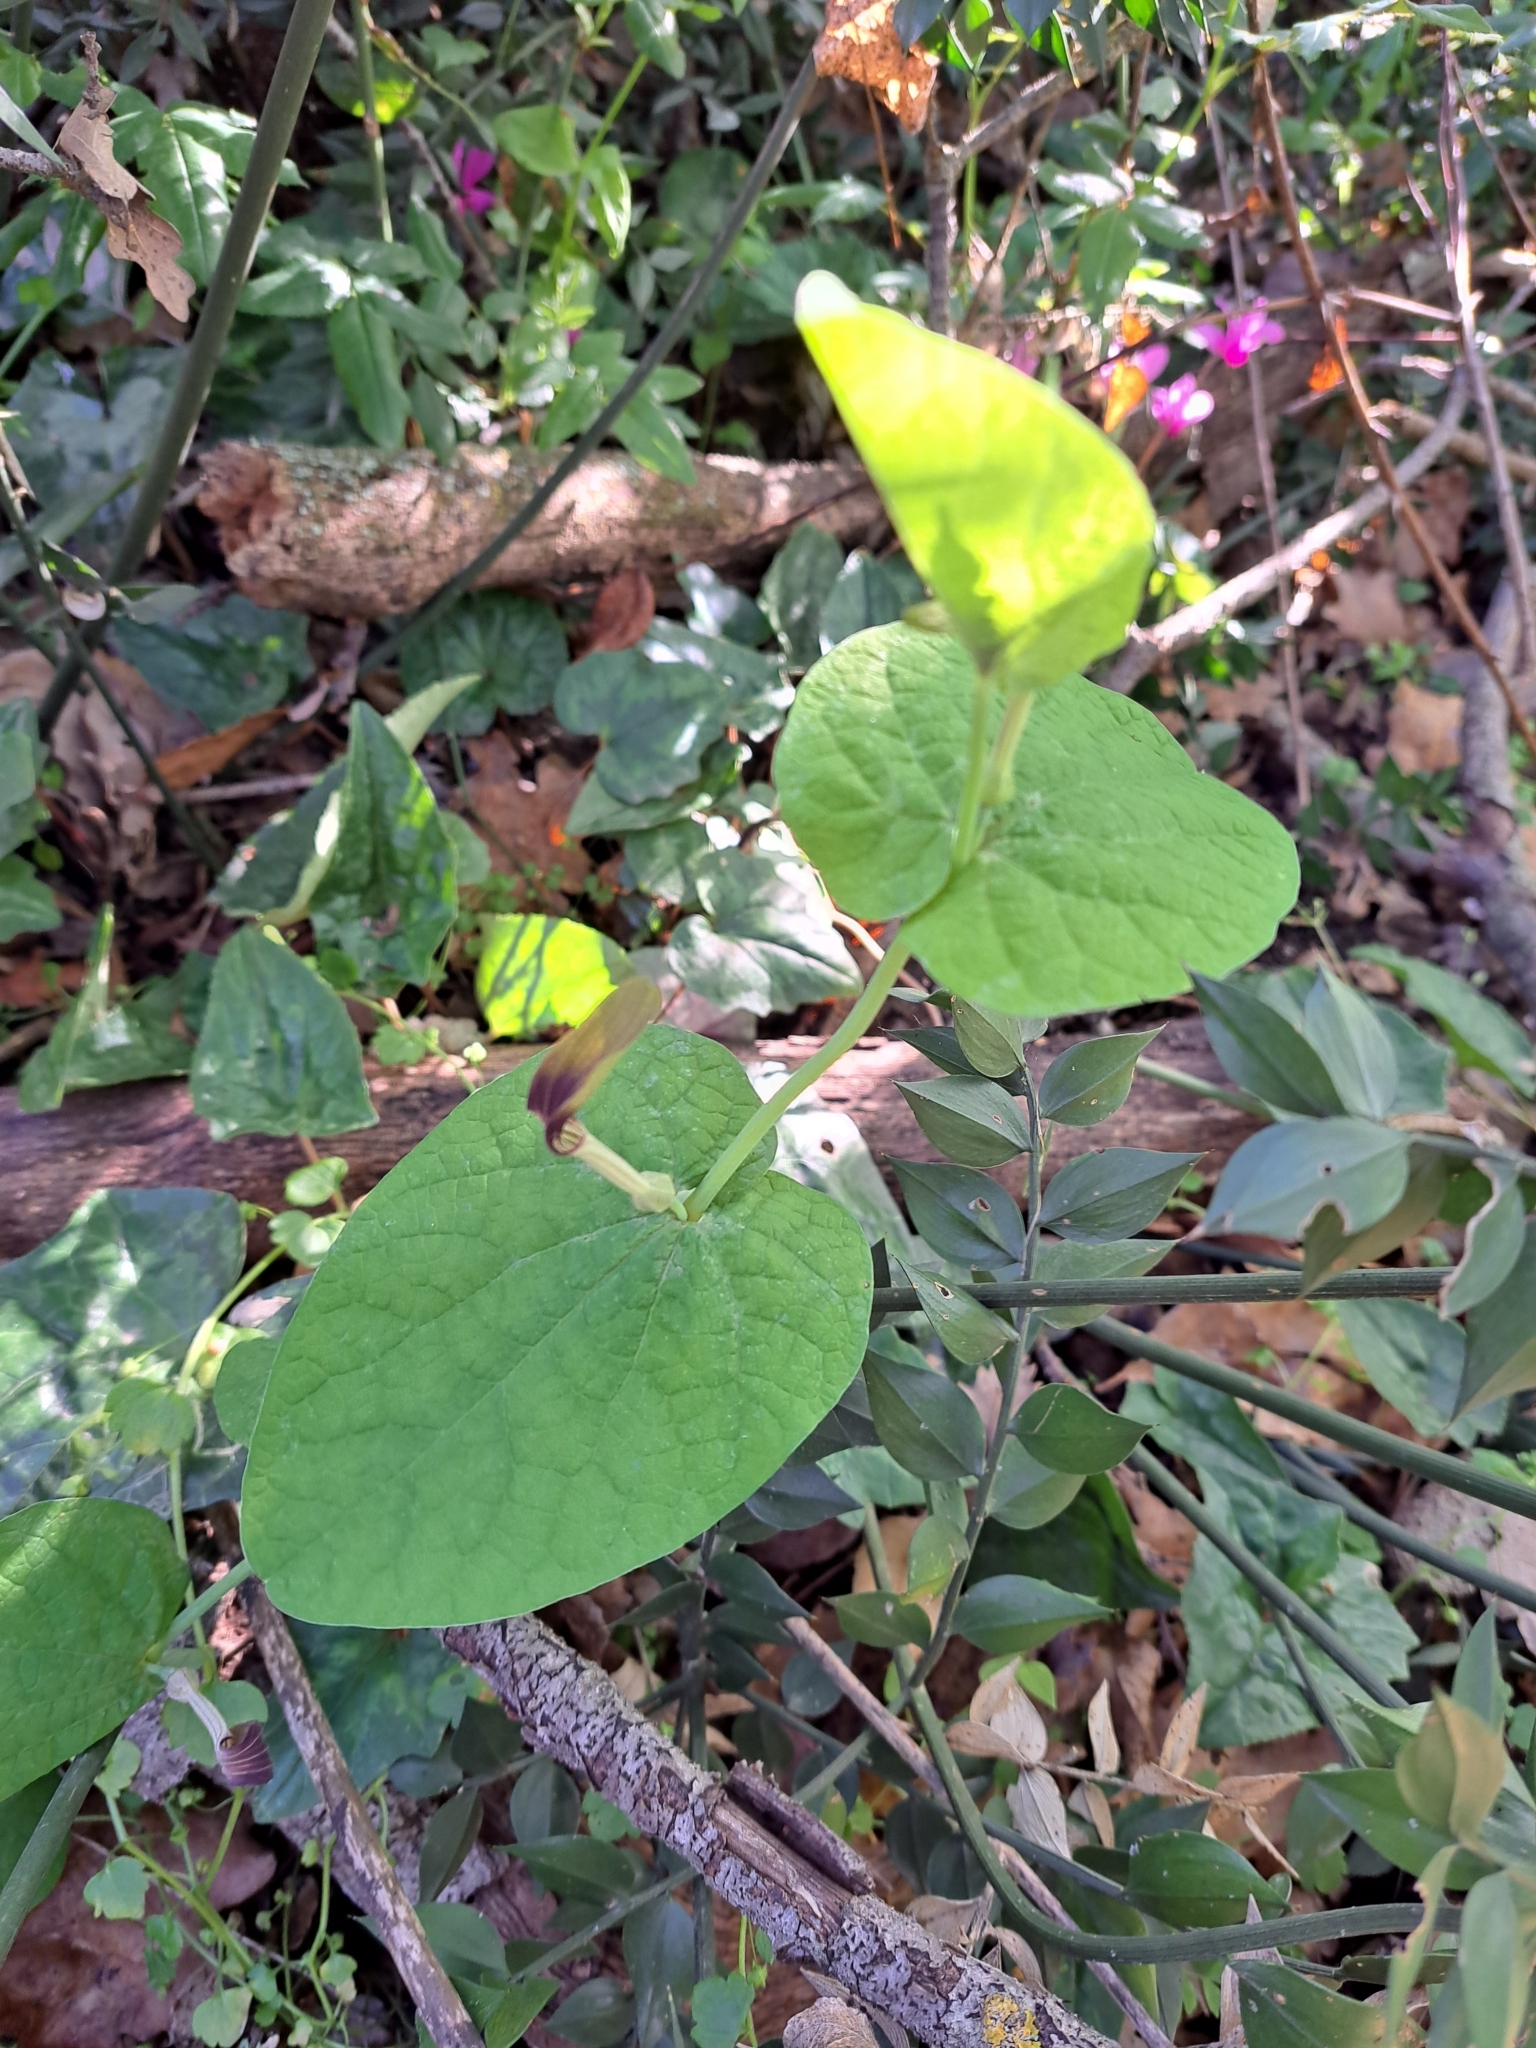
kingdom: Plantae
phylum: Tracheophyta
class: Magnoliopsida
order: Piperales
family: Aristolochiaceae
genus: Aristolochia
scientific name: Aristolochia rotunda
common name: Smearwort
